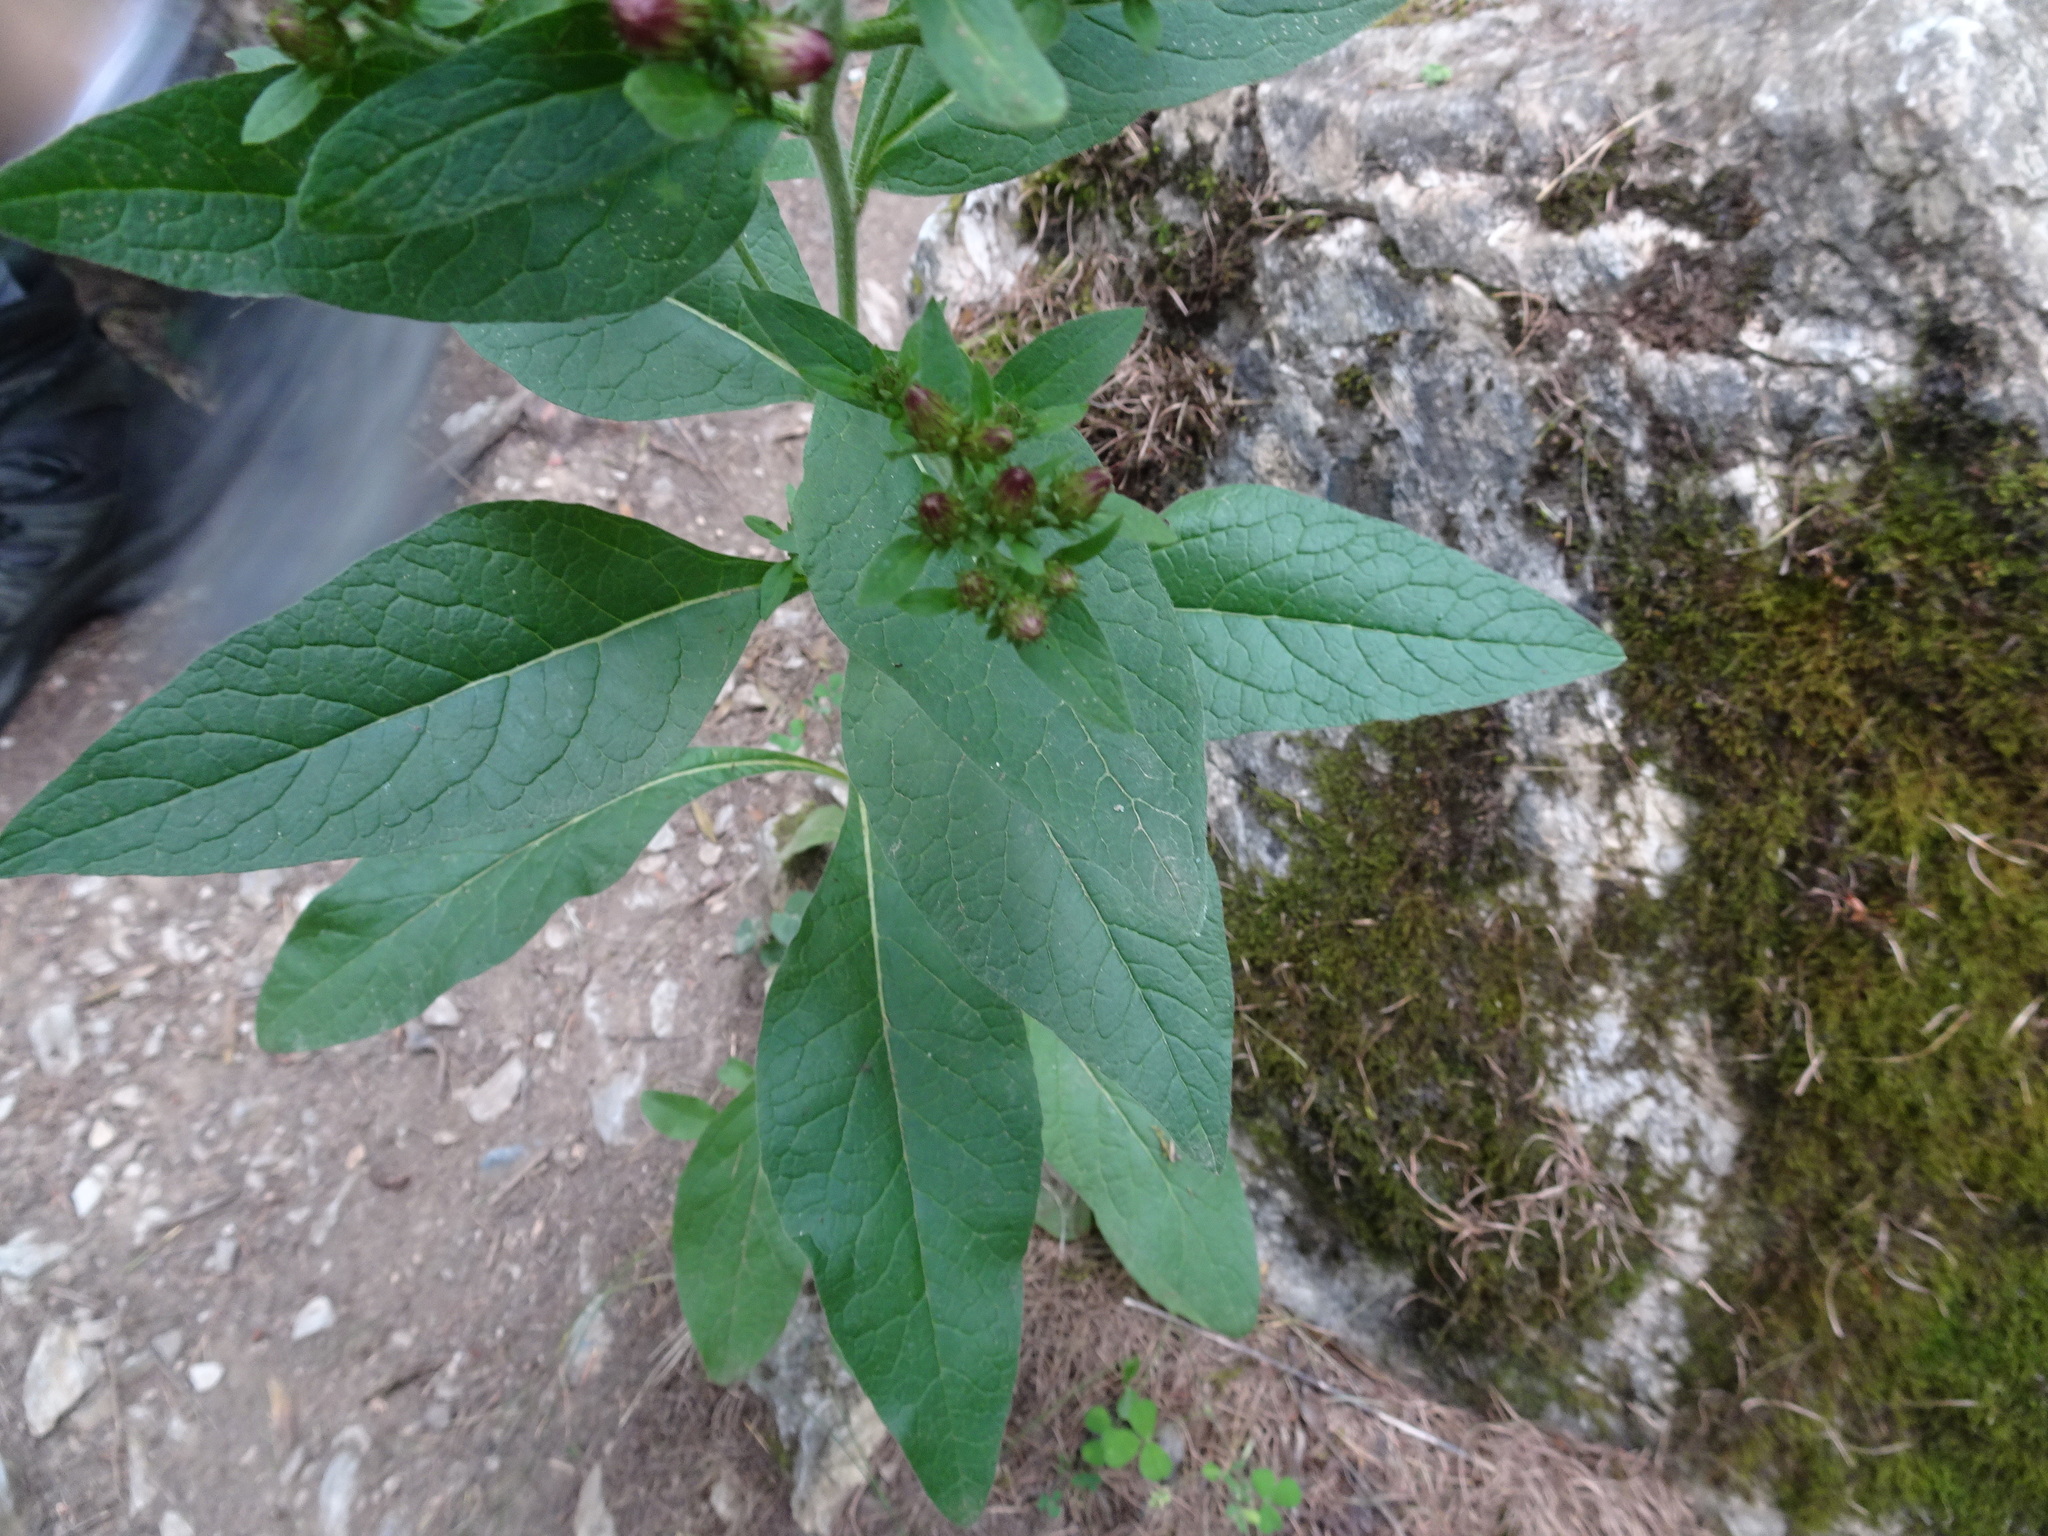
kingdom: Plantae
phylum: Tracheophyta
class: Magnoliopsida
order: Asterales
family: Asteraceae
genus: Pentanema
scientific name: Pentanema squarrosum
